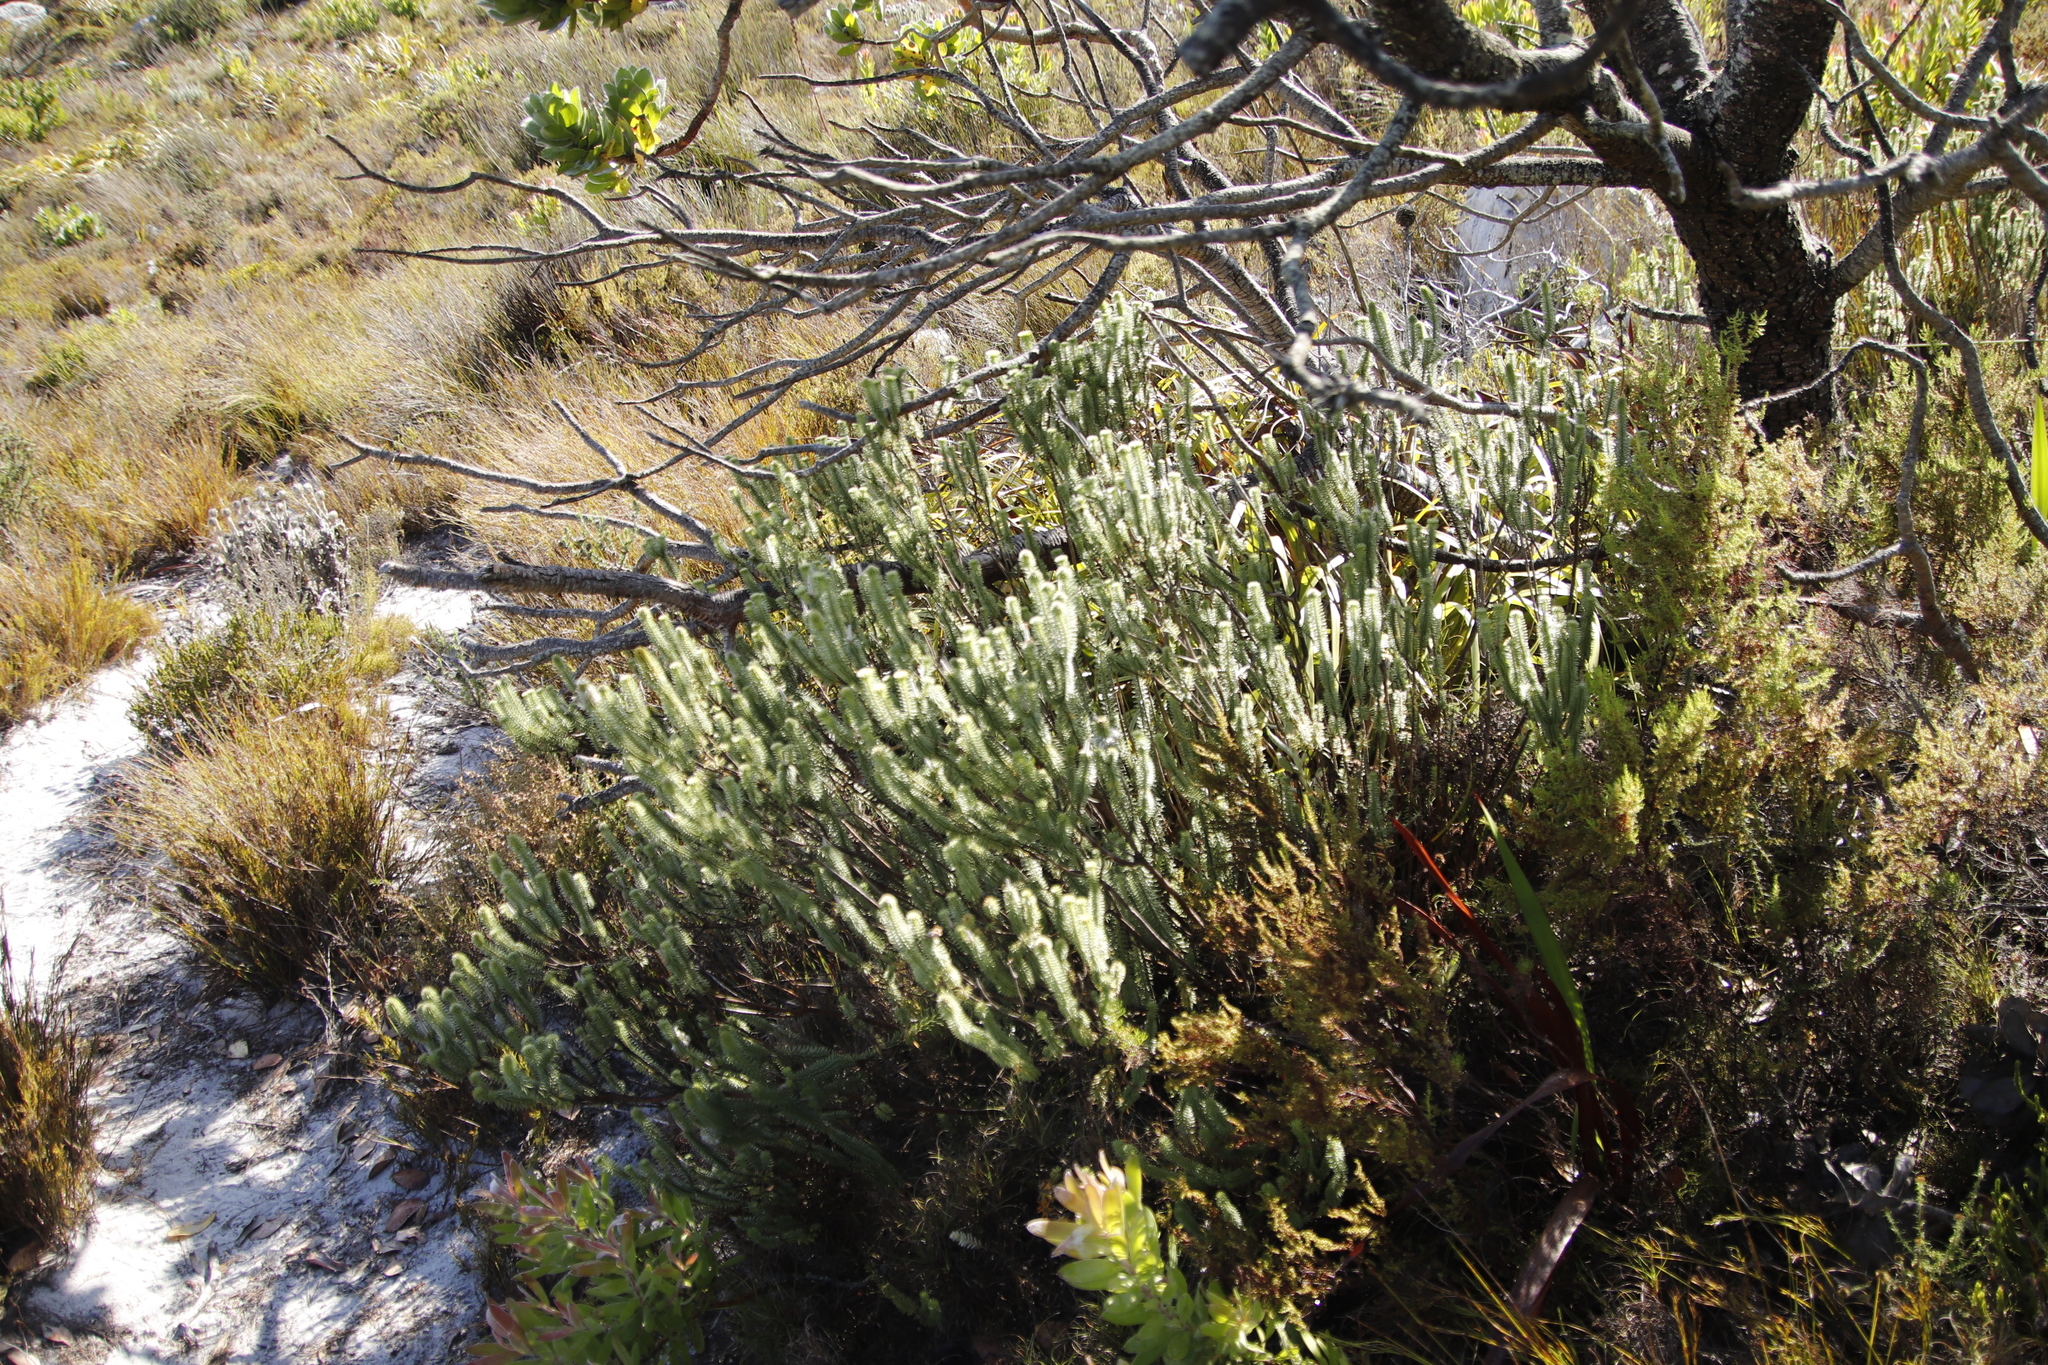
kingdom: Plantae
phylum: Tracheophyta
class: Magnoliopsida
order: Lamiales
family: Stilbaceae
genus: Stilbe
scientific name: Stilbe vestita
